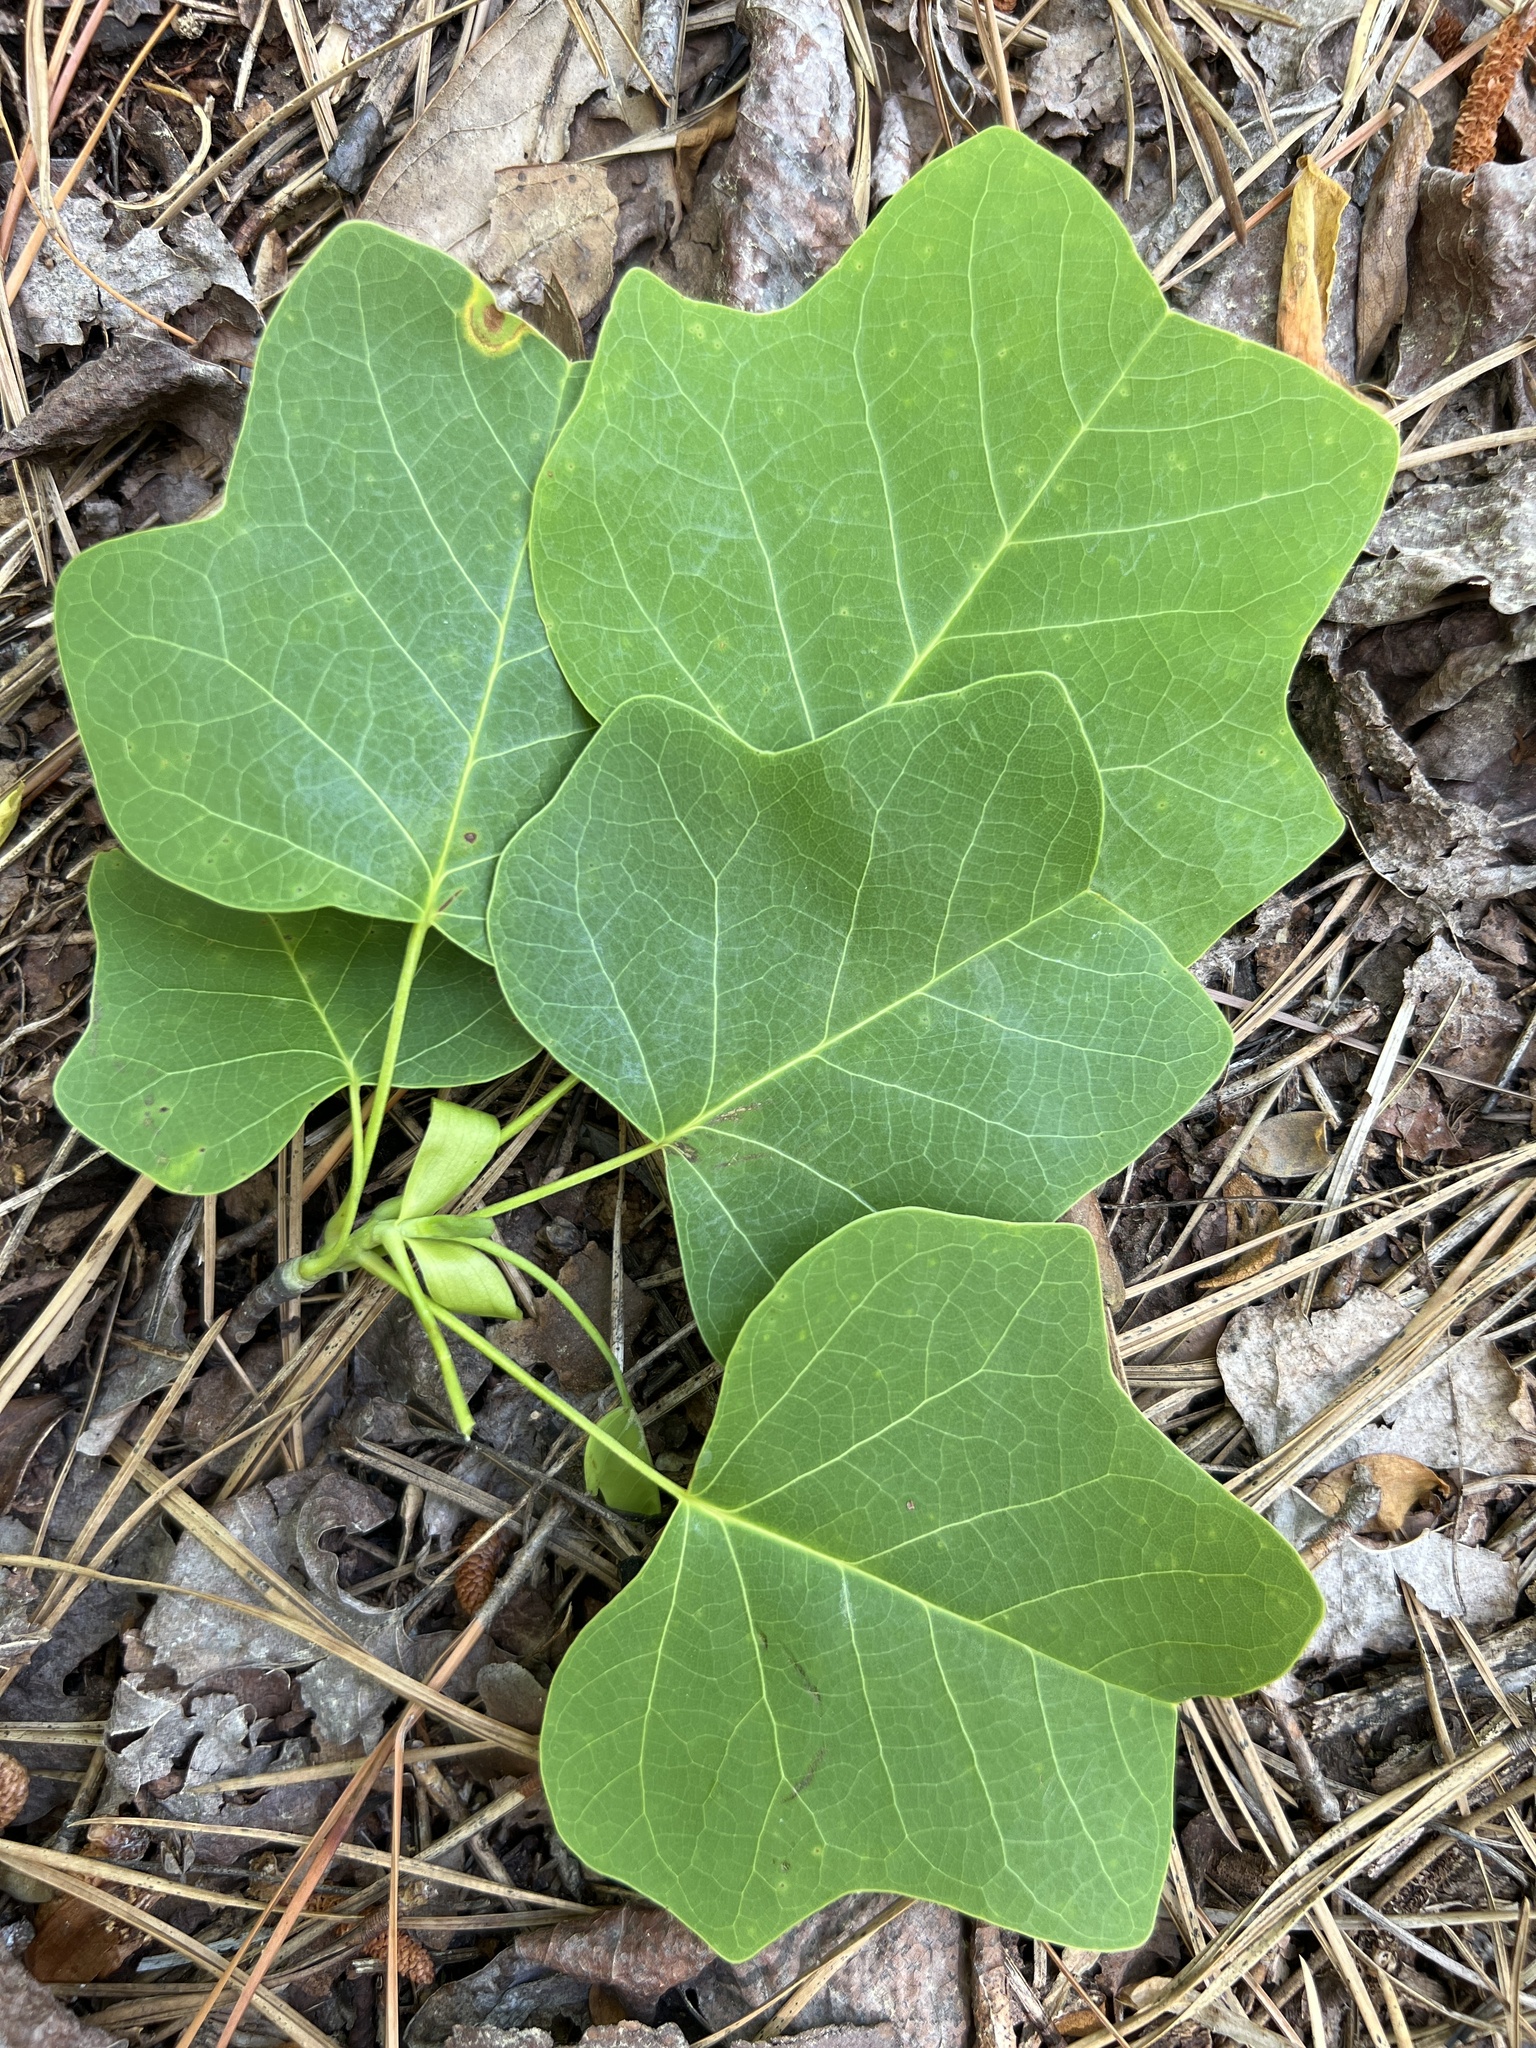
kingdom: Plantae
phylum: Tracheophyta
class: Magnoliopsida
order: Magnoliales
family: Magnoliaceae
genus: Liriodendron
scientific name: Liriodendron tulipifera
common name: Tulip tree
